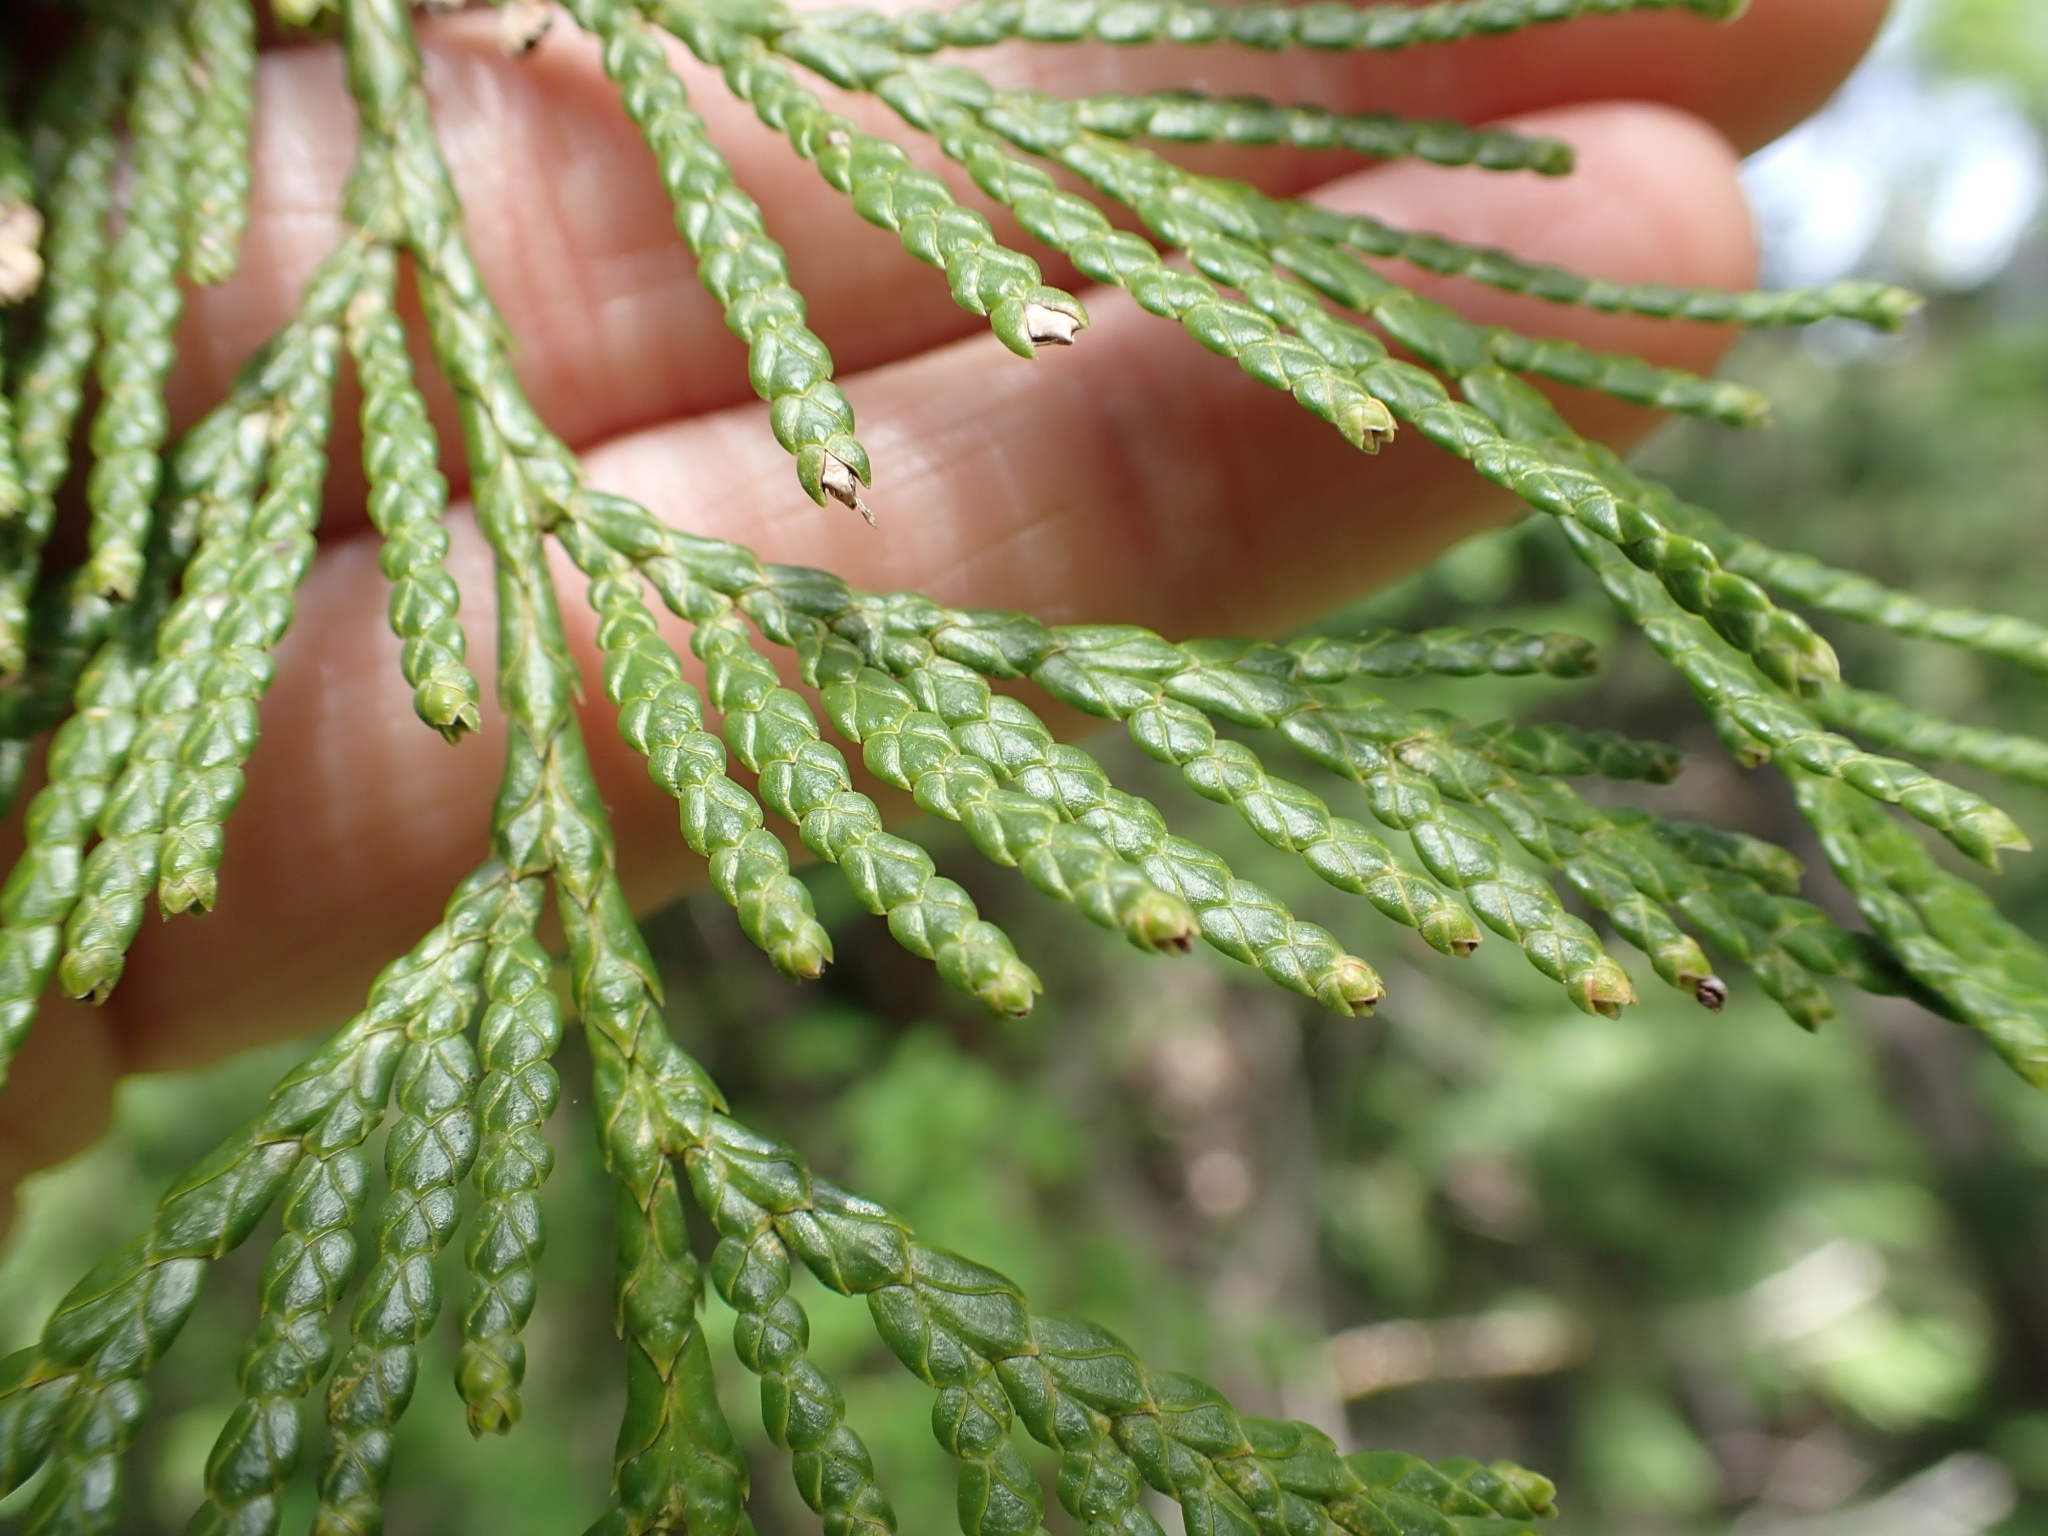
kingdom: Plantae
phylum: Tracheophyta
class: Pinopsida
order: Pinales
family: Cupressaceae
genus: Thuja
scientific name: Thuja plicata
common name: Western red-cedar
